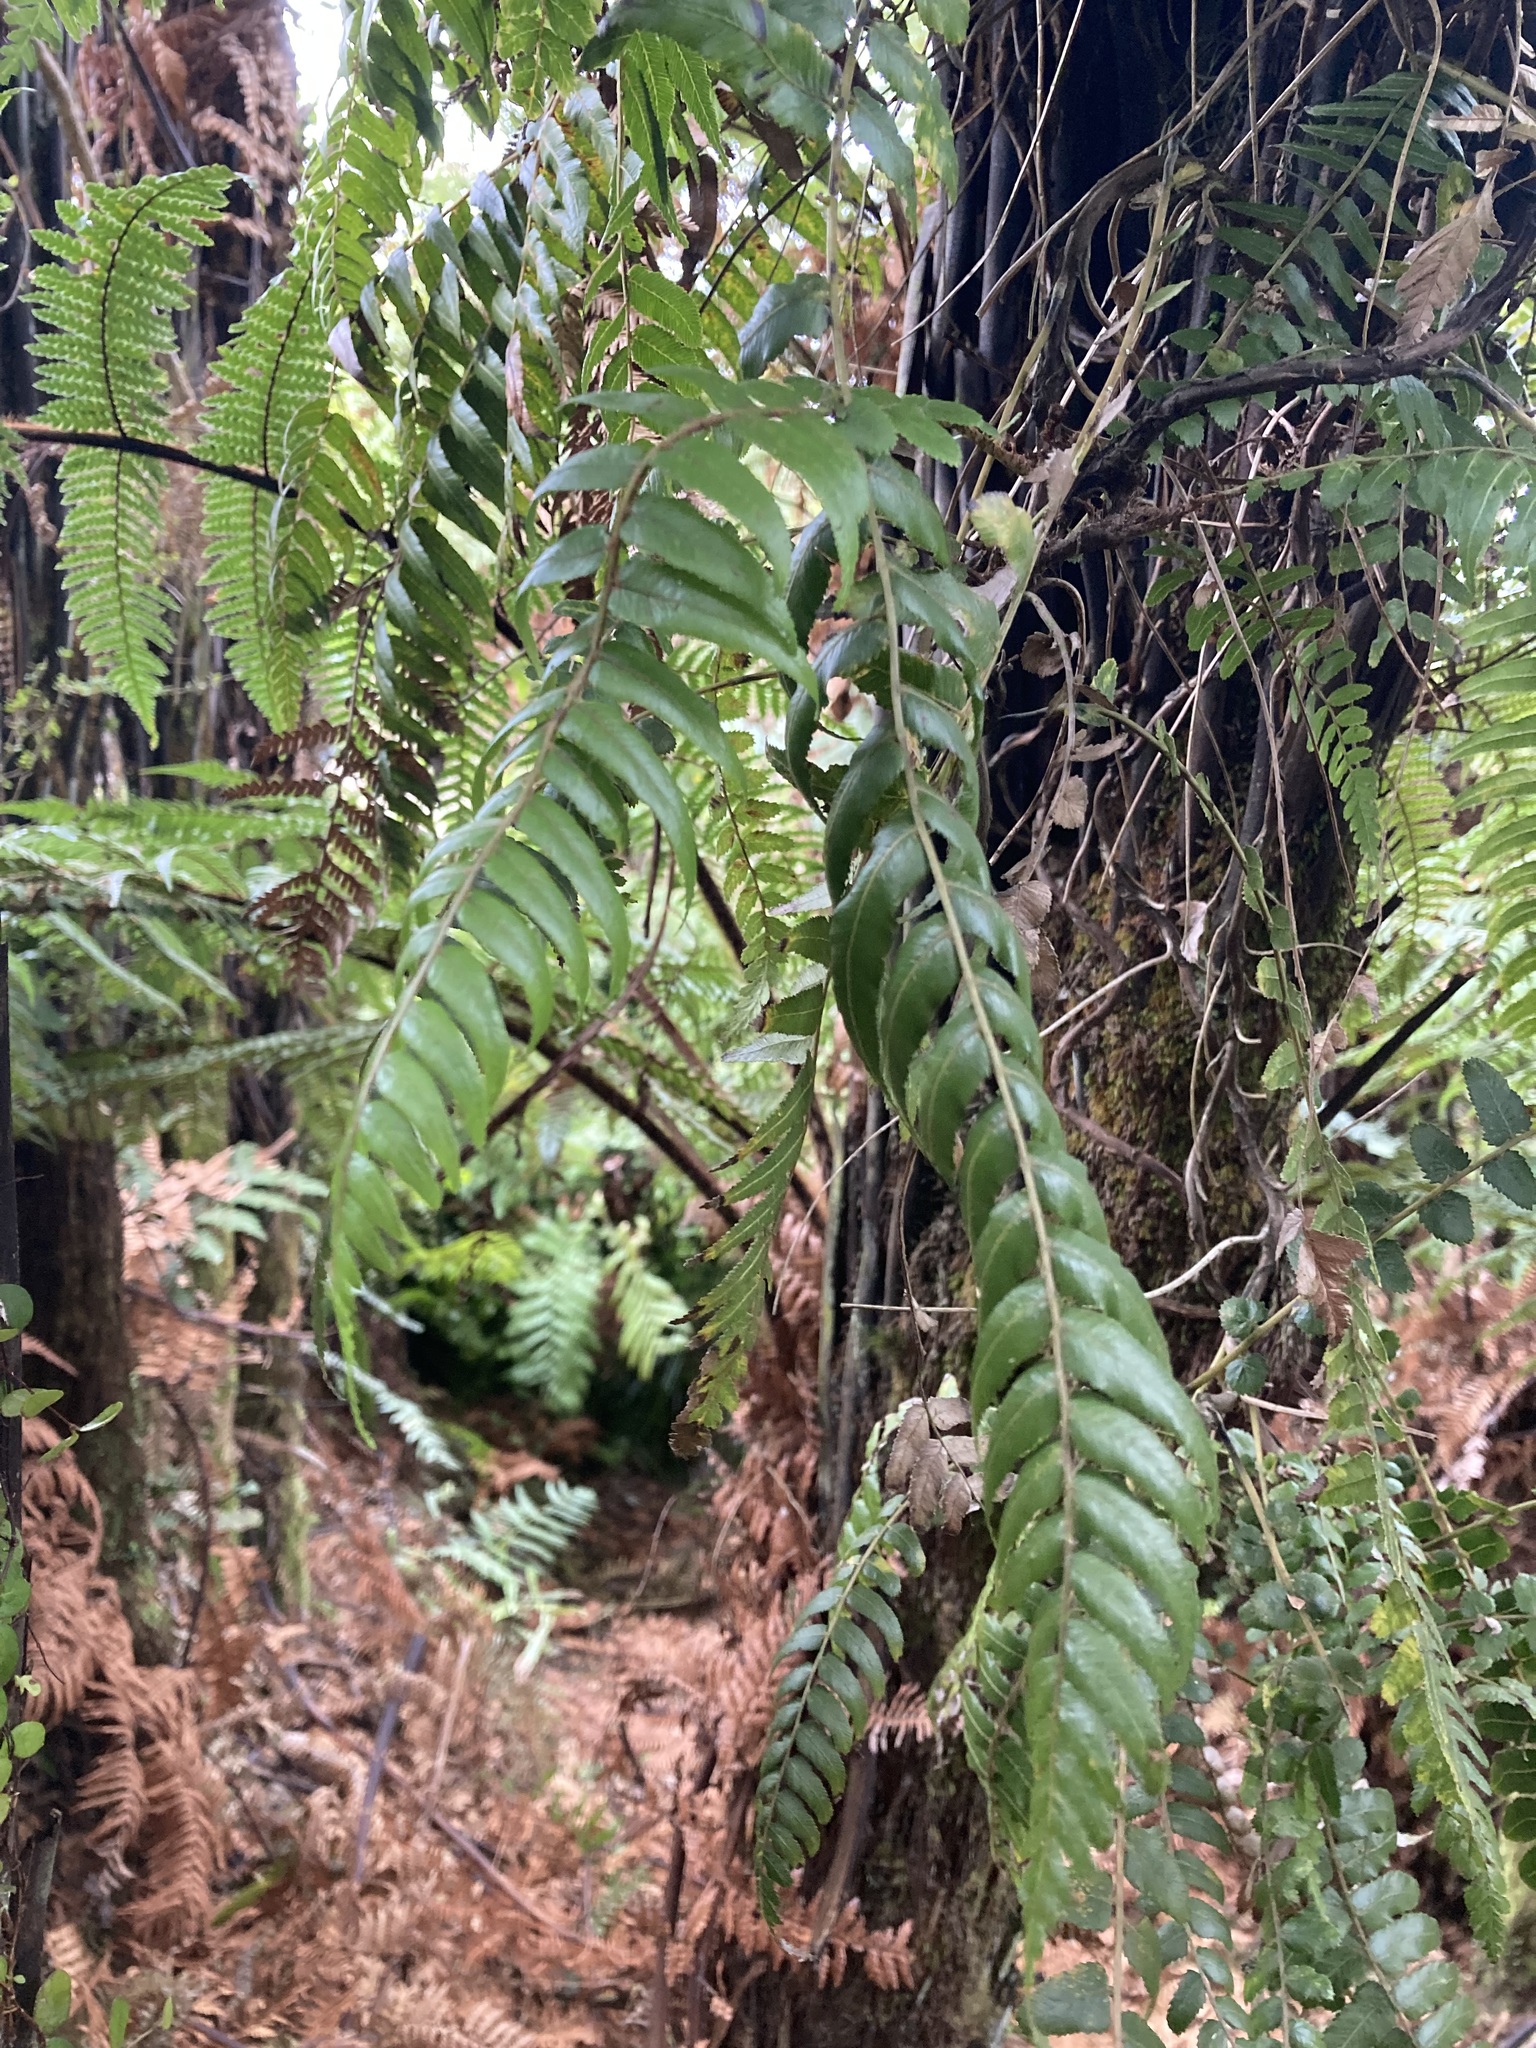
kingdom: Plantae
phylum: Tracheophyta
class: Polypodiopsida
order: Polypodiales
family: Blechnaceae
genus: Icarus
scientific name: Icarus filiformis
